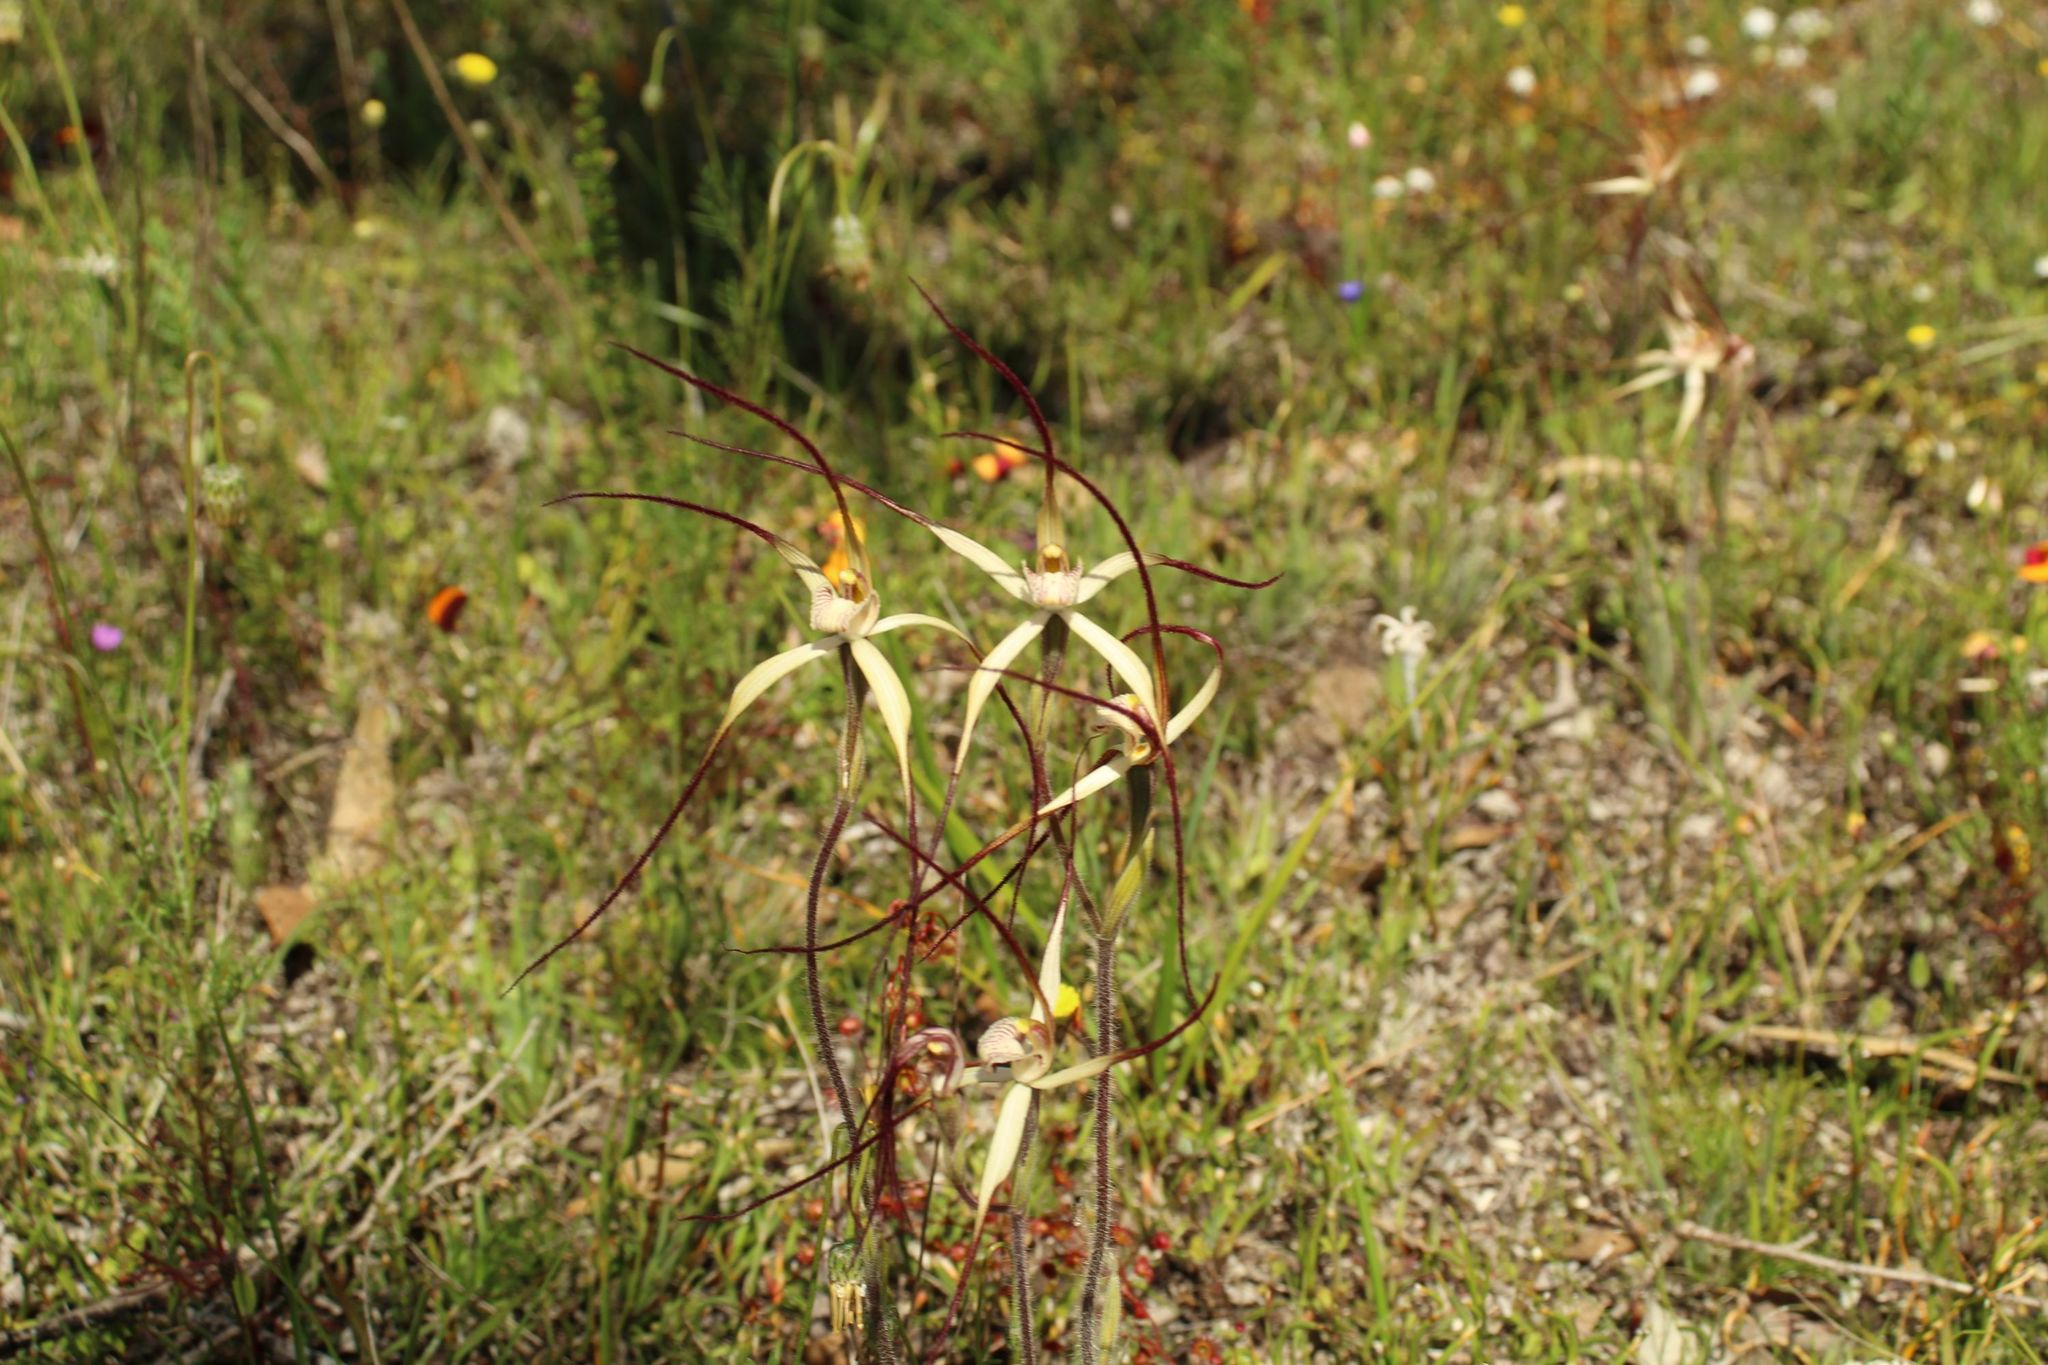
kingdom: Plantae
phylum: Tracheophyta
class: Liliopsida
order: Asparagales
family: Orchidaceae
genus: Caladenia
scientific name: Caladenia polychroma
